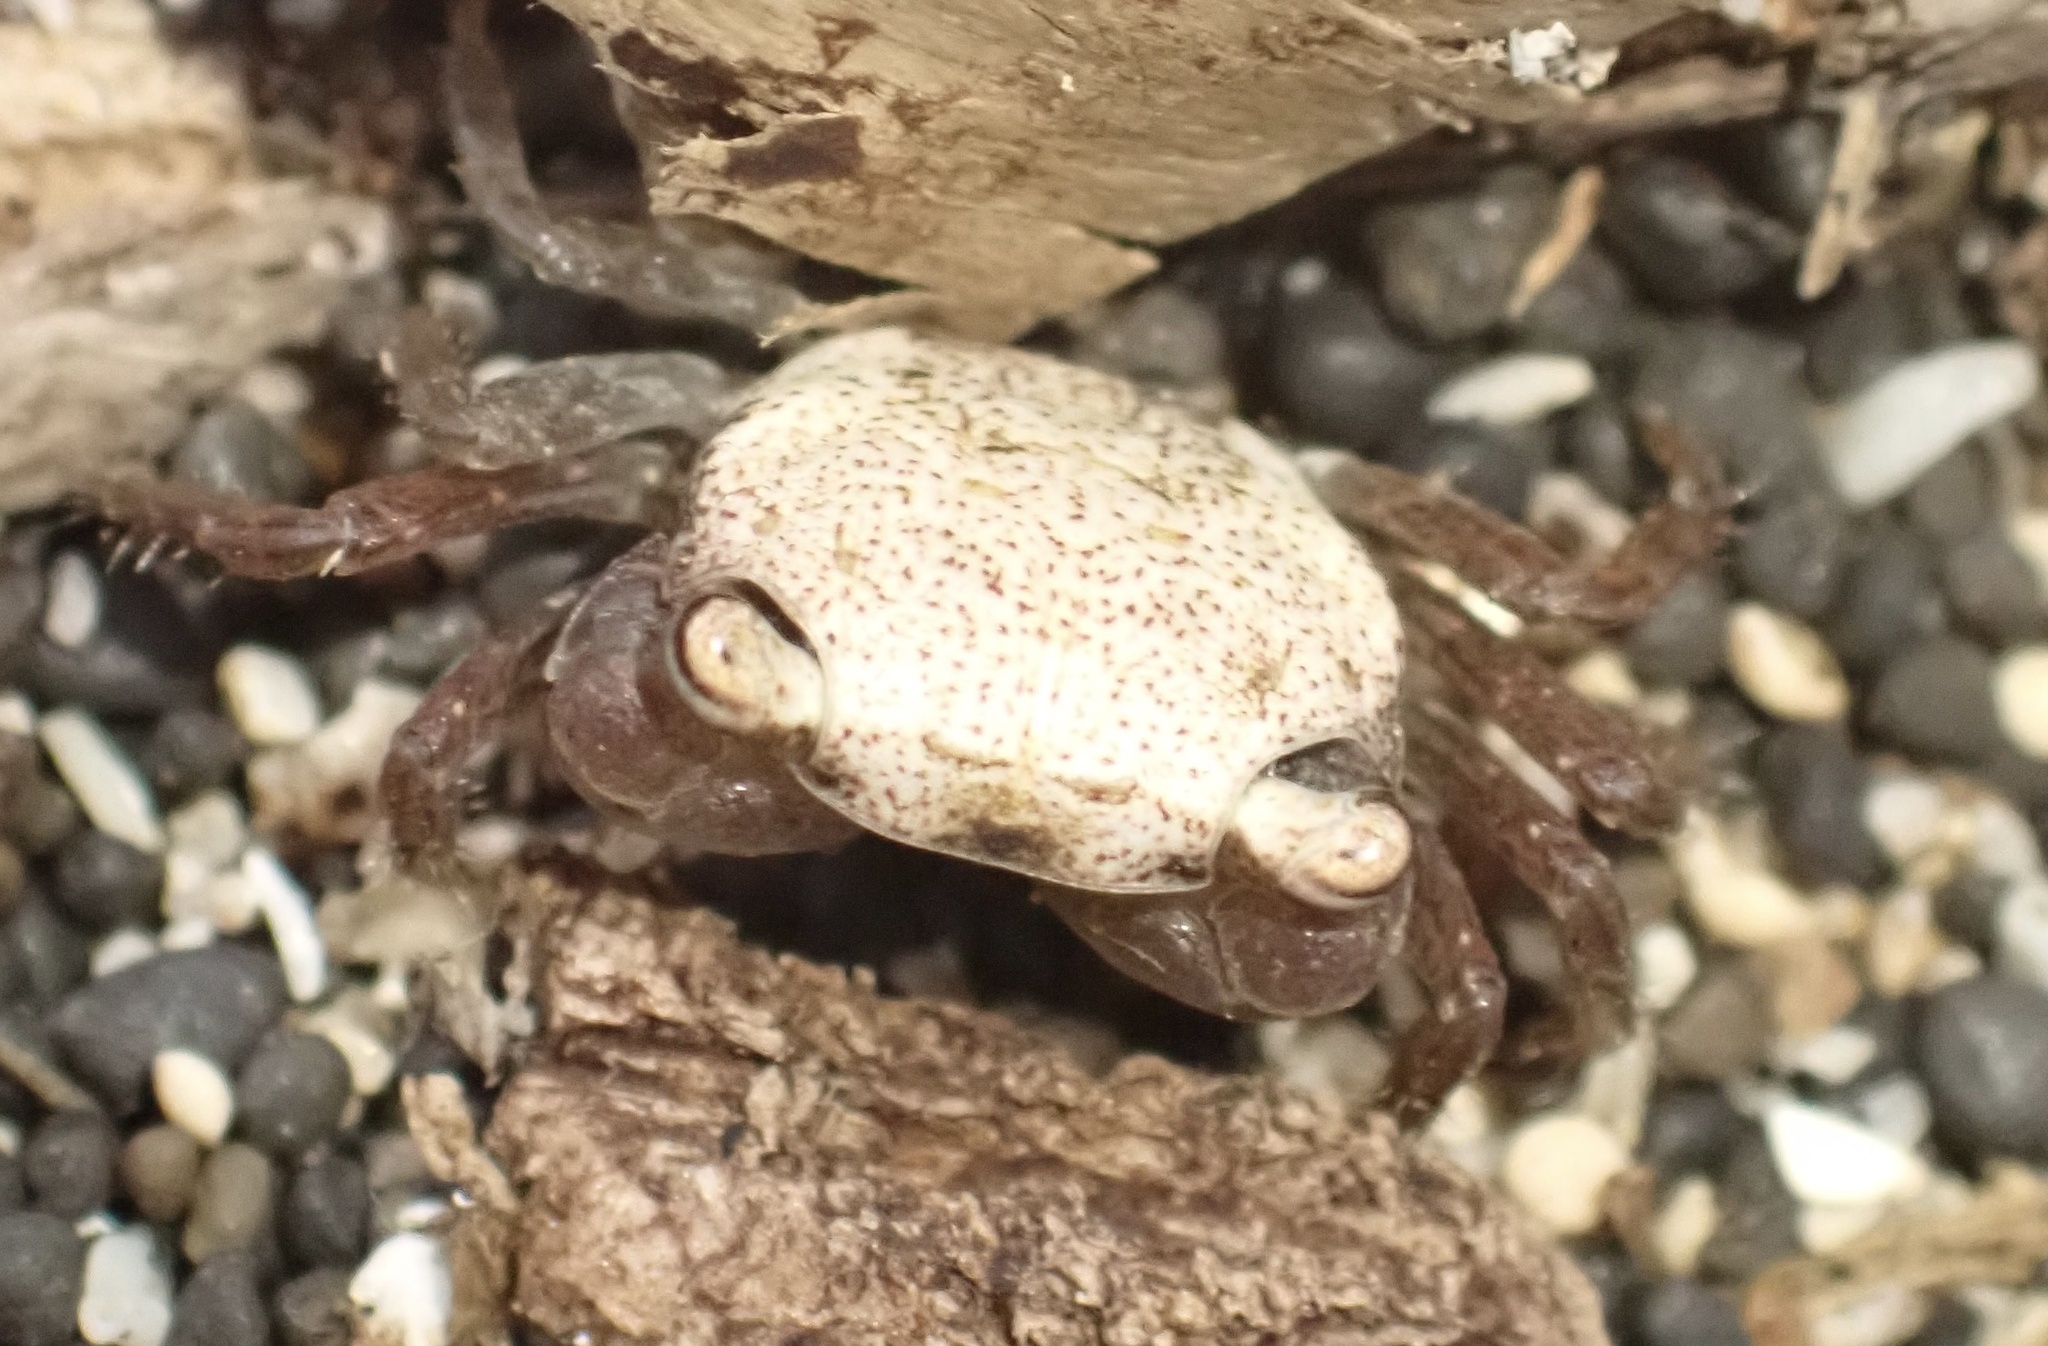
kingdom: Animalia
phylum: Arthropoda
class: Malacostraca
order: Decapoda
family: Sesarmidae
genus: Metasesarma
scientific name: Metasesarma obesum
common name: Marble crab
